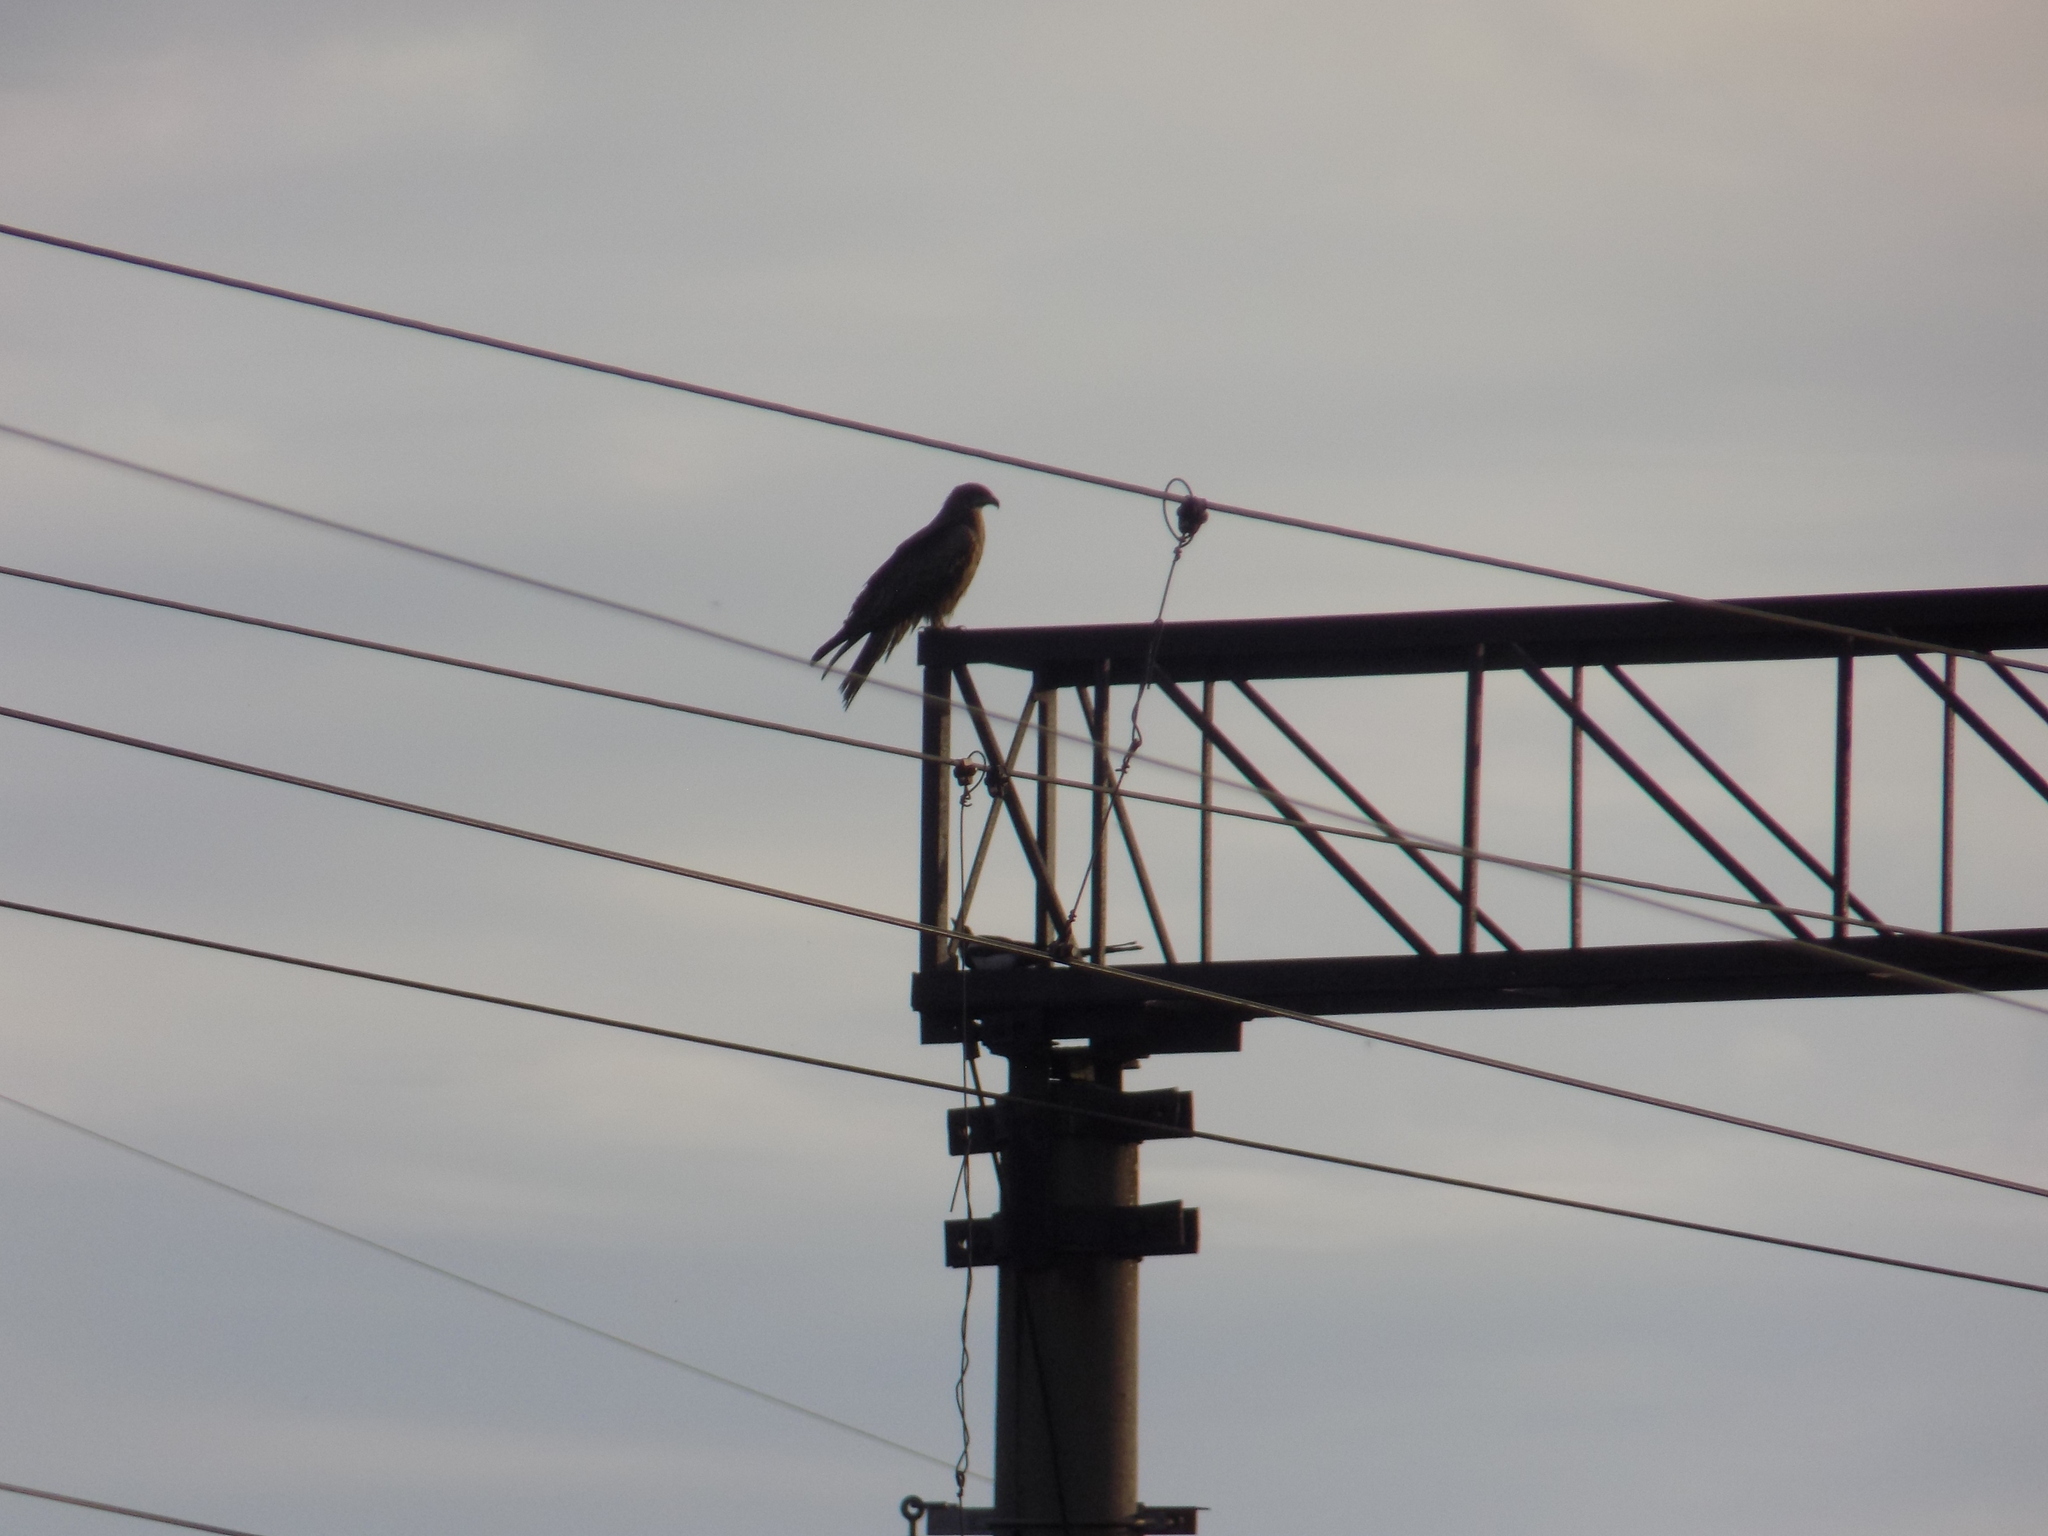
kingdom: Animalia
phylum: Chordata
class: Aves
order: Accipitriformes
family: Accipitridae
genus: Milvus
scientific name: Milvus migrans
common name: Black kite
